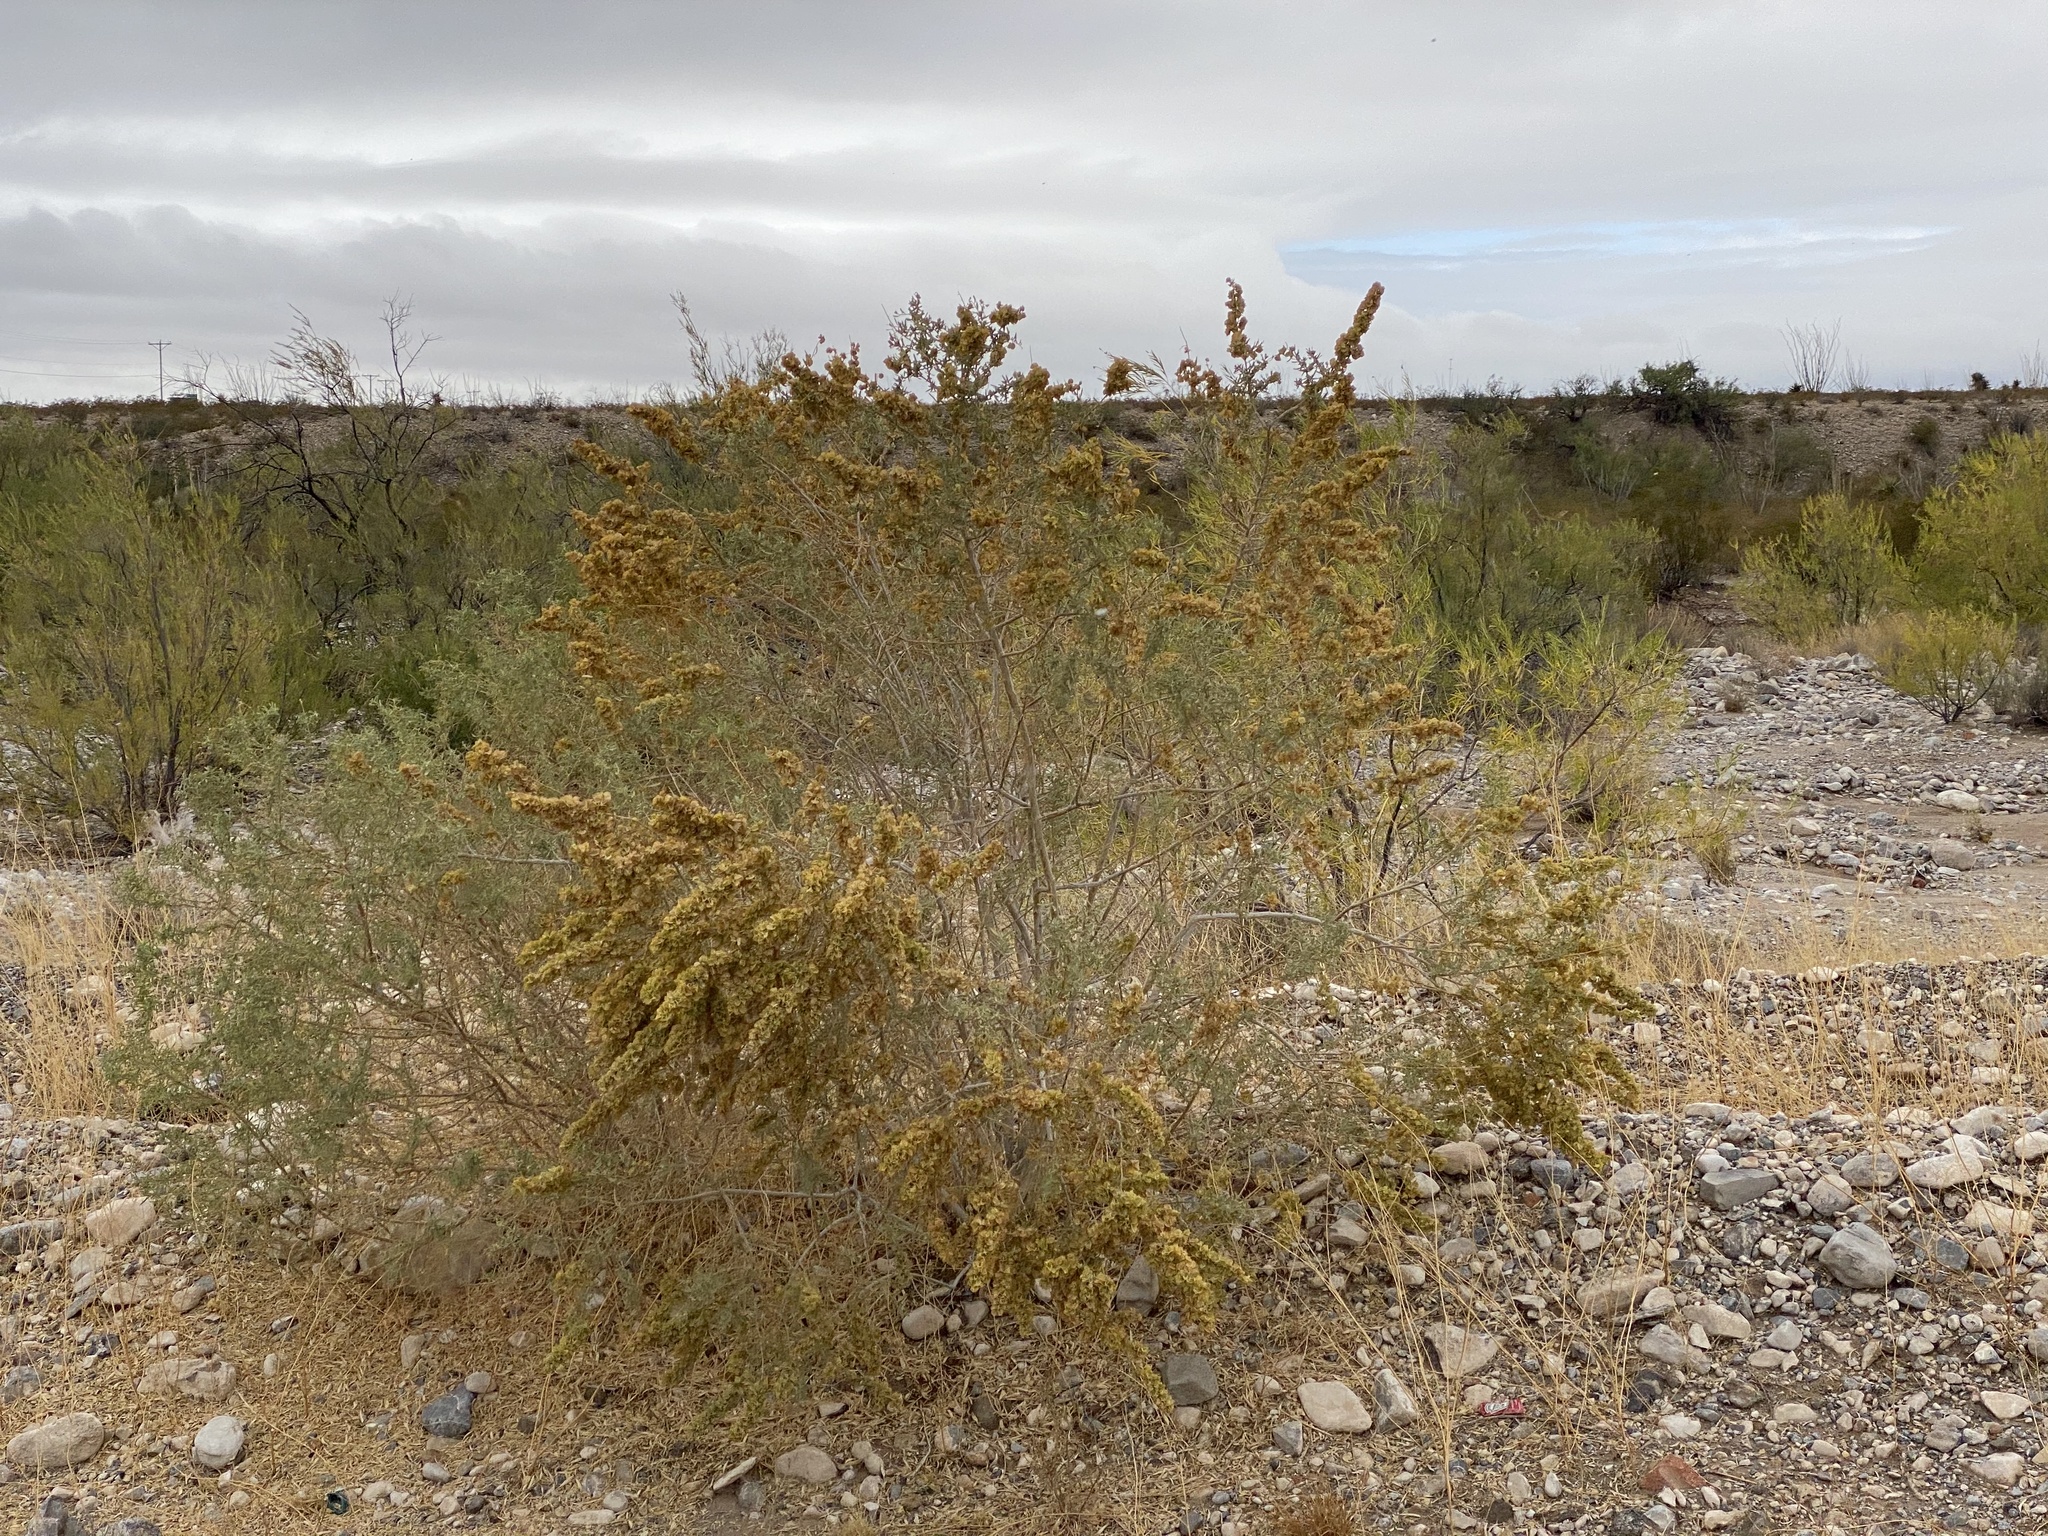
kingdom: Plantae
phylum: Tracheophyta
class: Magnoliopsida
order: Caryophyllales
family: Amaranthaceae
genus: Atriplex
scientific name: Atriplex canescens
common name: Four-wing saltbush
